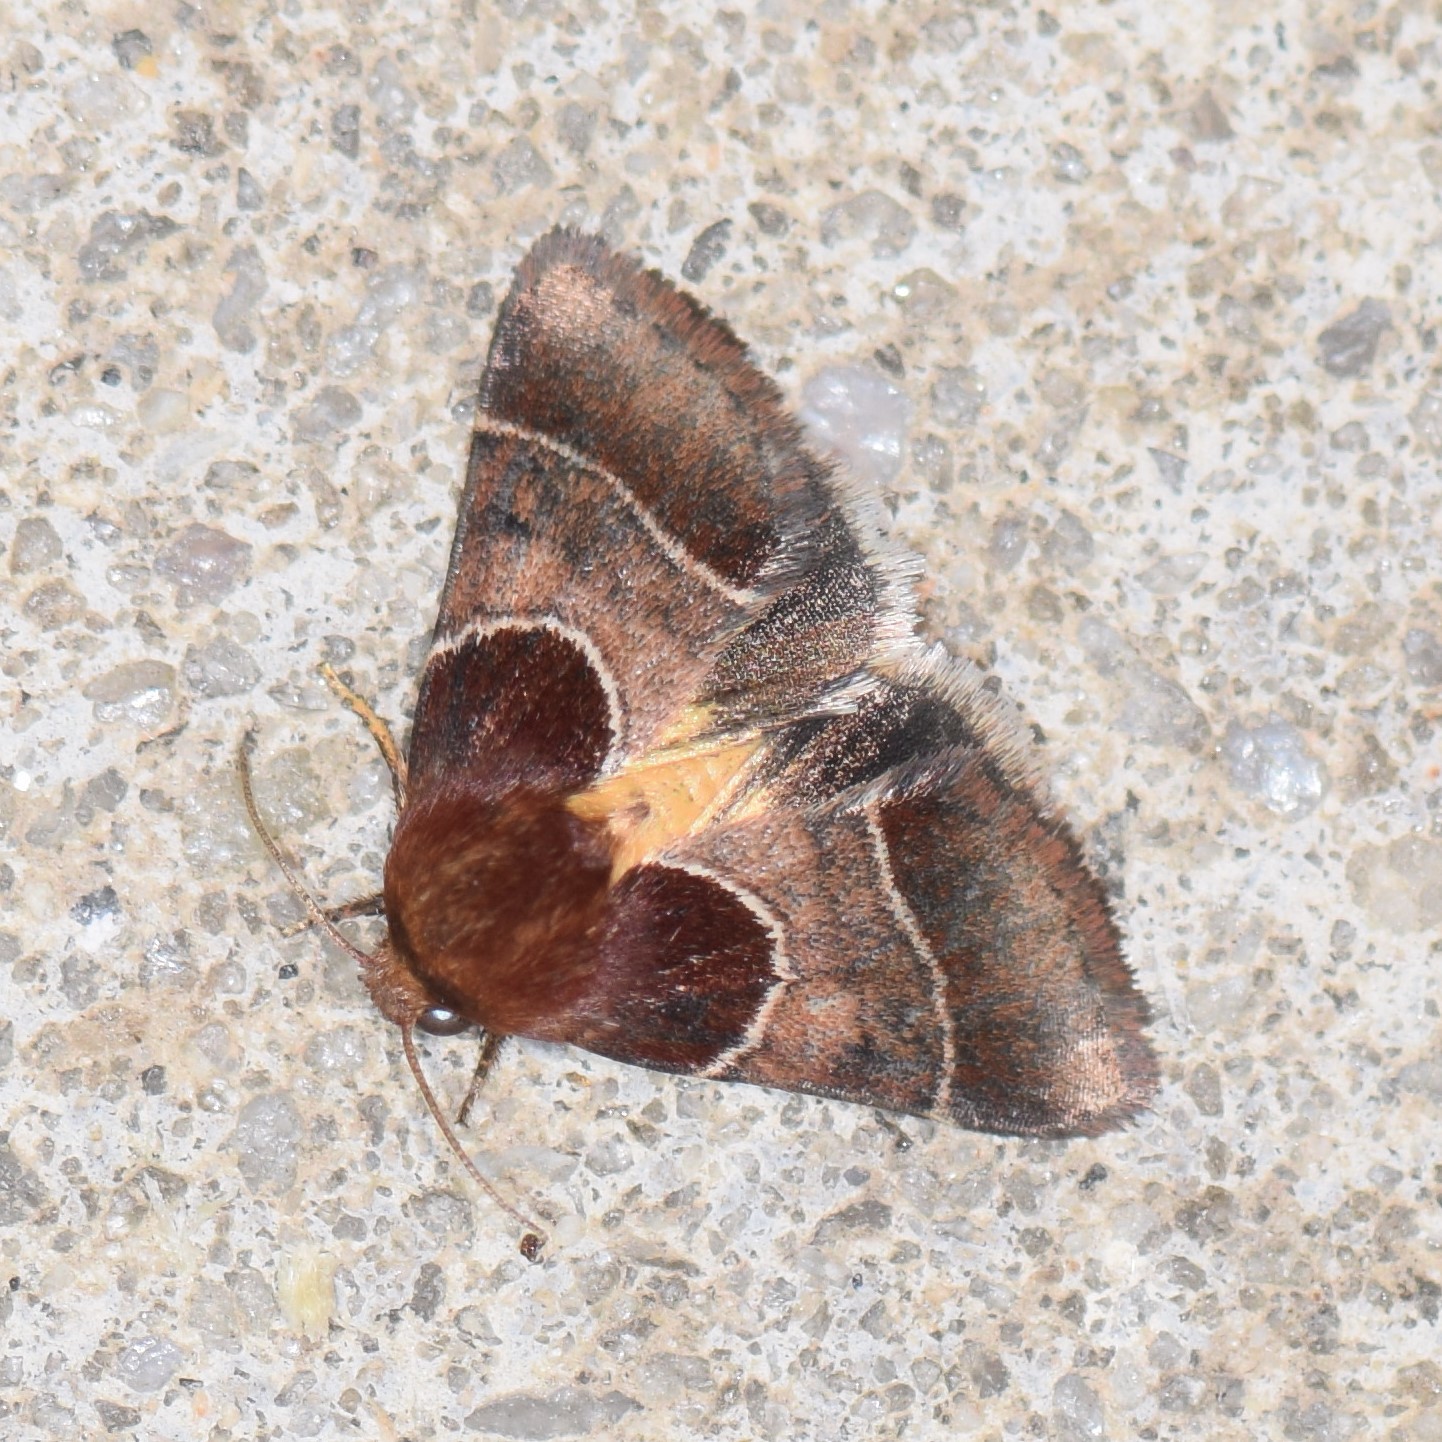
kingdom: Animalia
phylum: Arthropoda
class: Insecta
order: Lepidoptera
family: Noctuidae
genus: Schinia
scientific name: Schinia arcigera
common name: Arcigera flower moth
